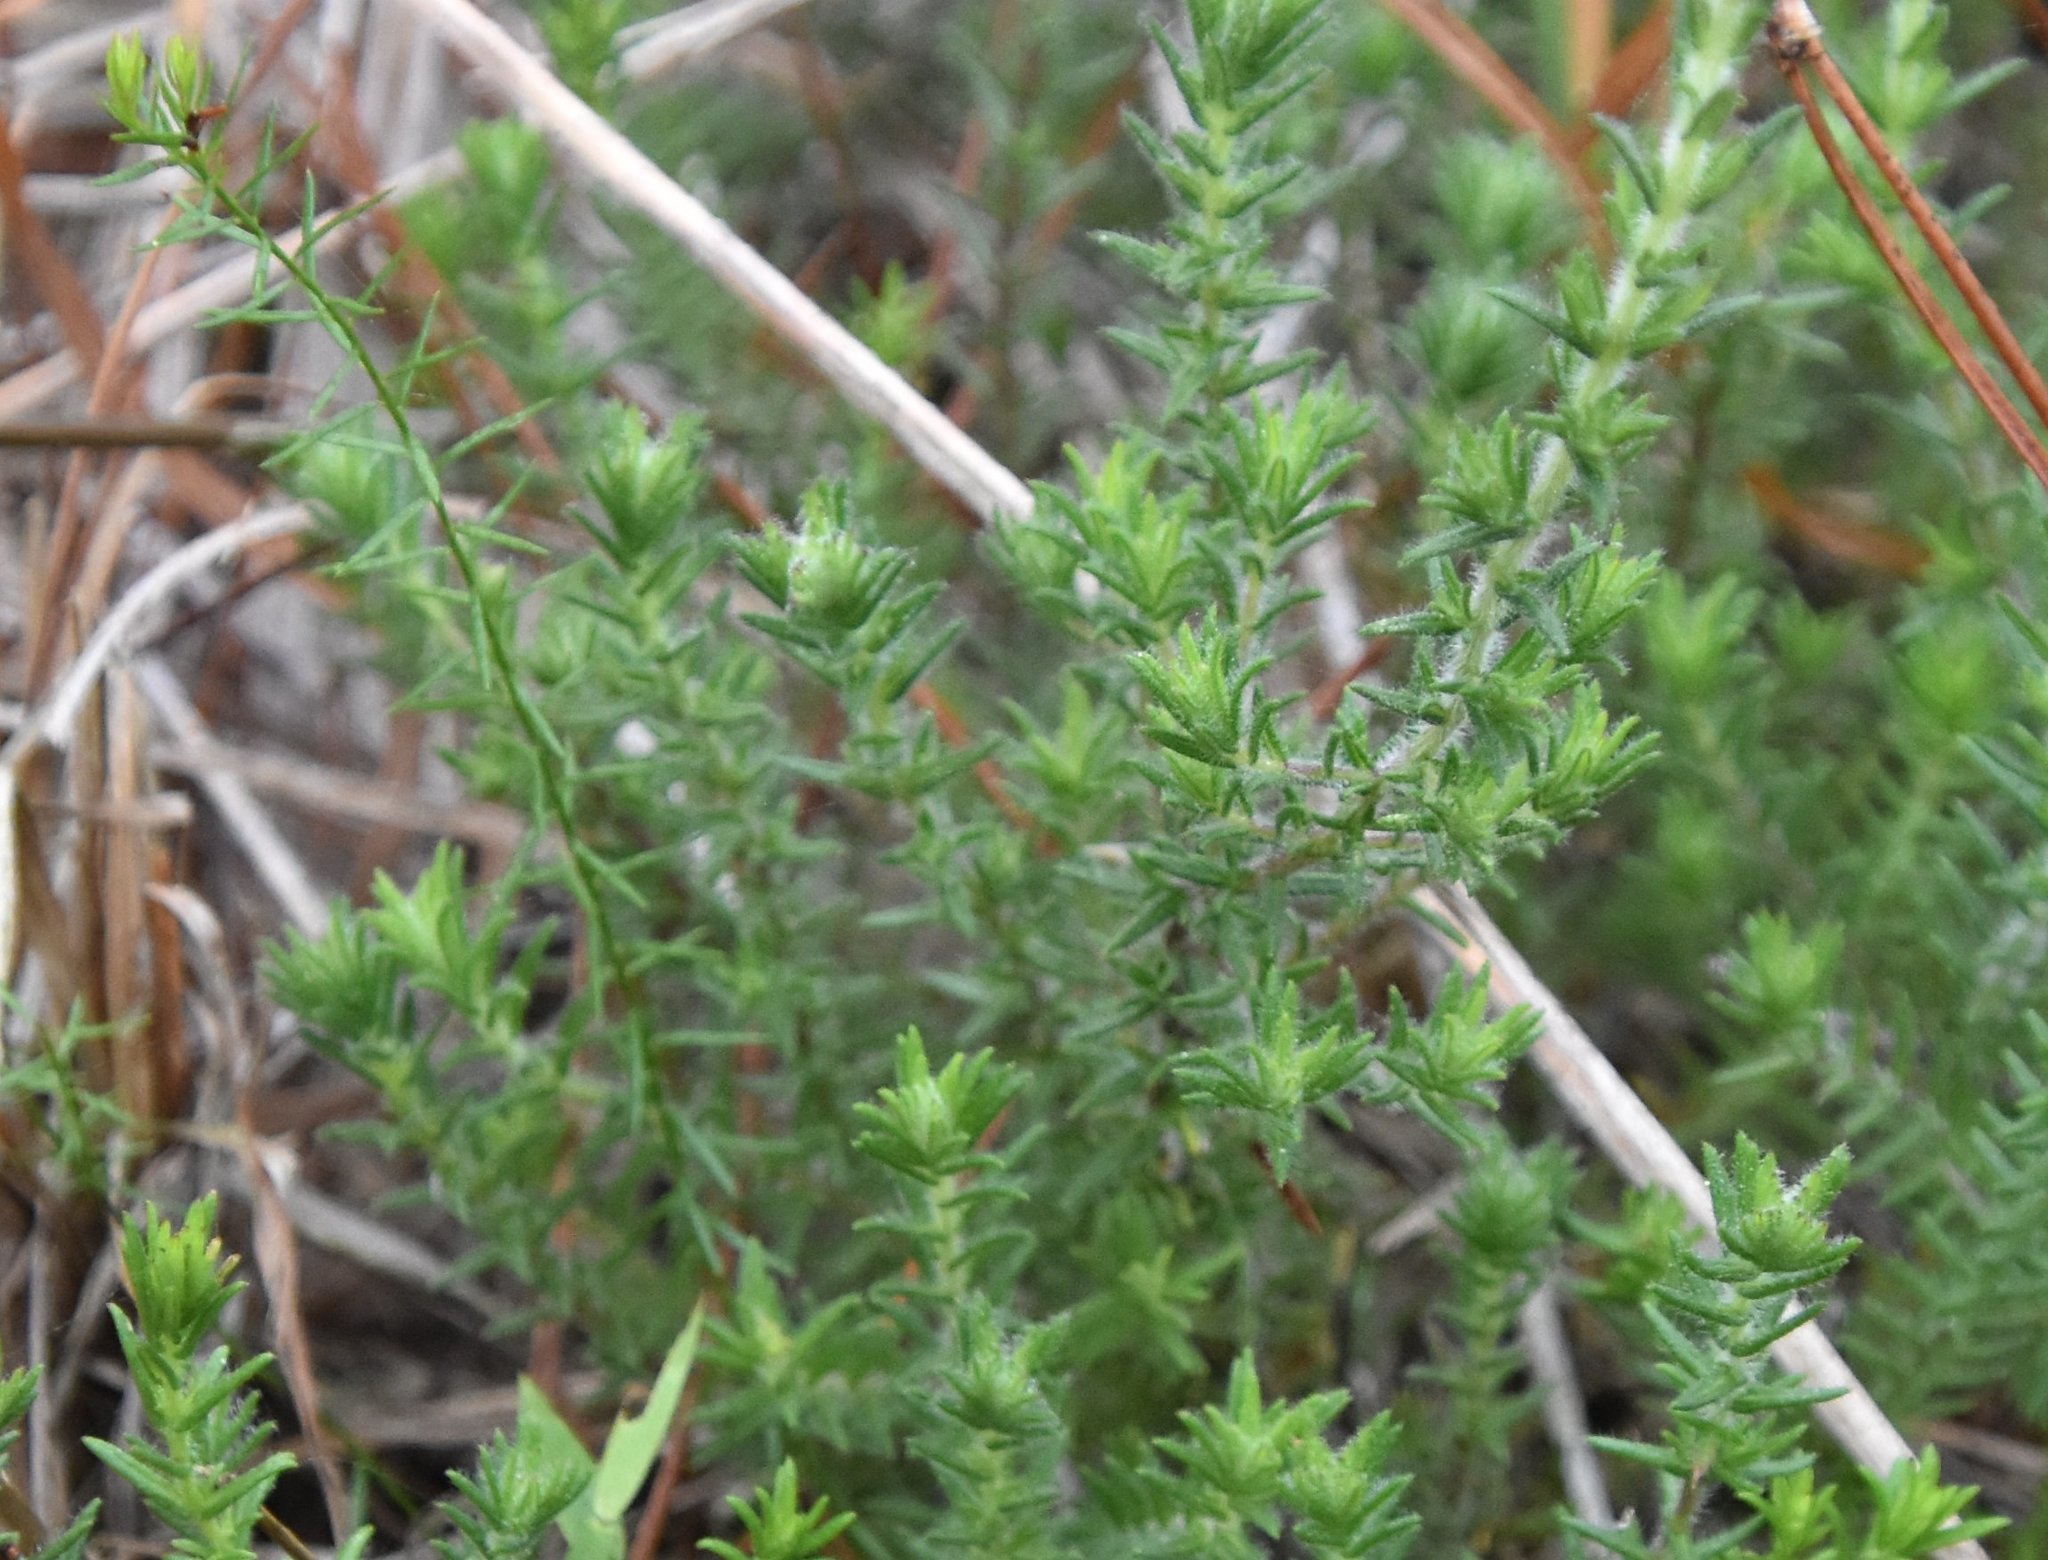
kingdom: Plantae
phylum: Tracheophyta
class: Magnoliopsida
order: Lamiales
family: Lamiaceae
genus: Piloblephis
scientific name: Piloblephis rigida
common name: Wild pennyroyal
